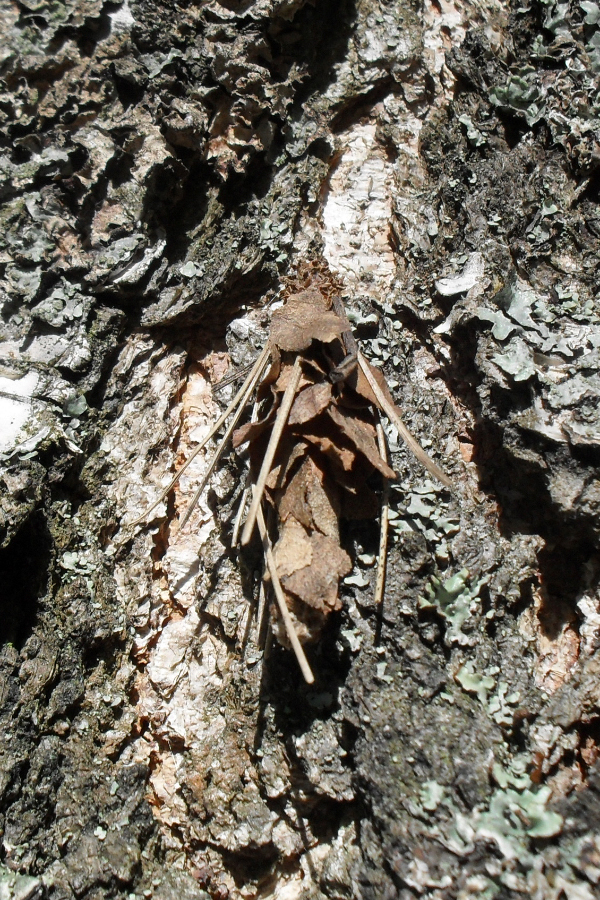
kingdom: Animalia
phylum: Arthropoda
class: Insecta
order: Lepidoptera
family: Psychidae
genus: Canephora
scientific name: Canephora hirsuta
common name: Hairy sweep
